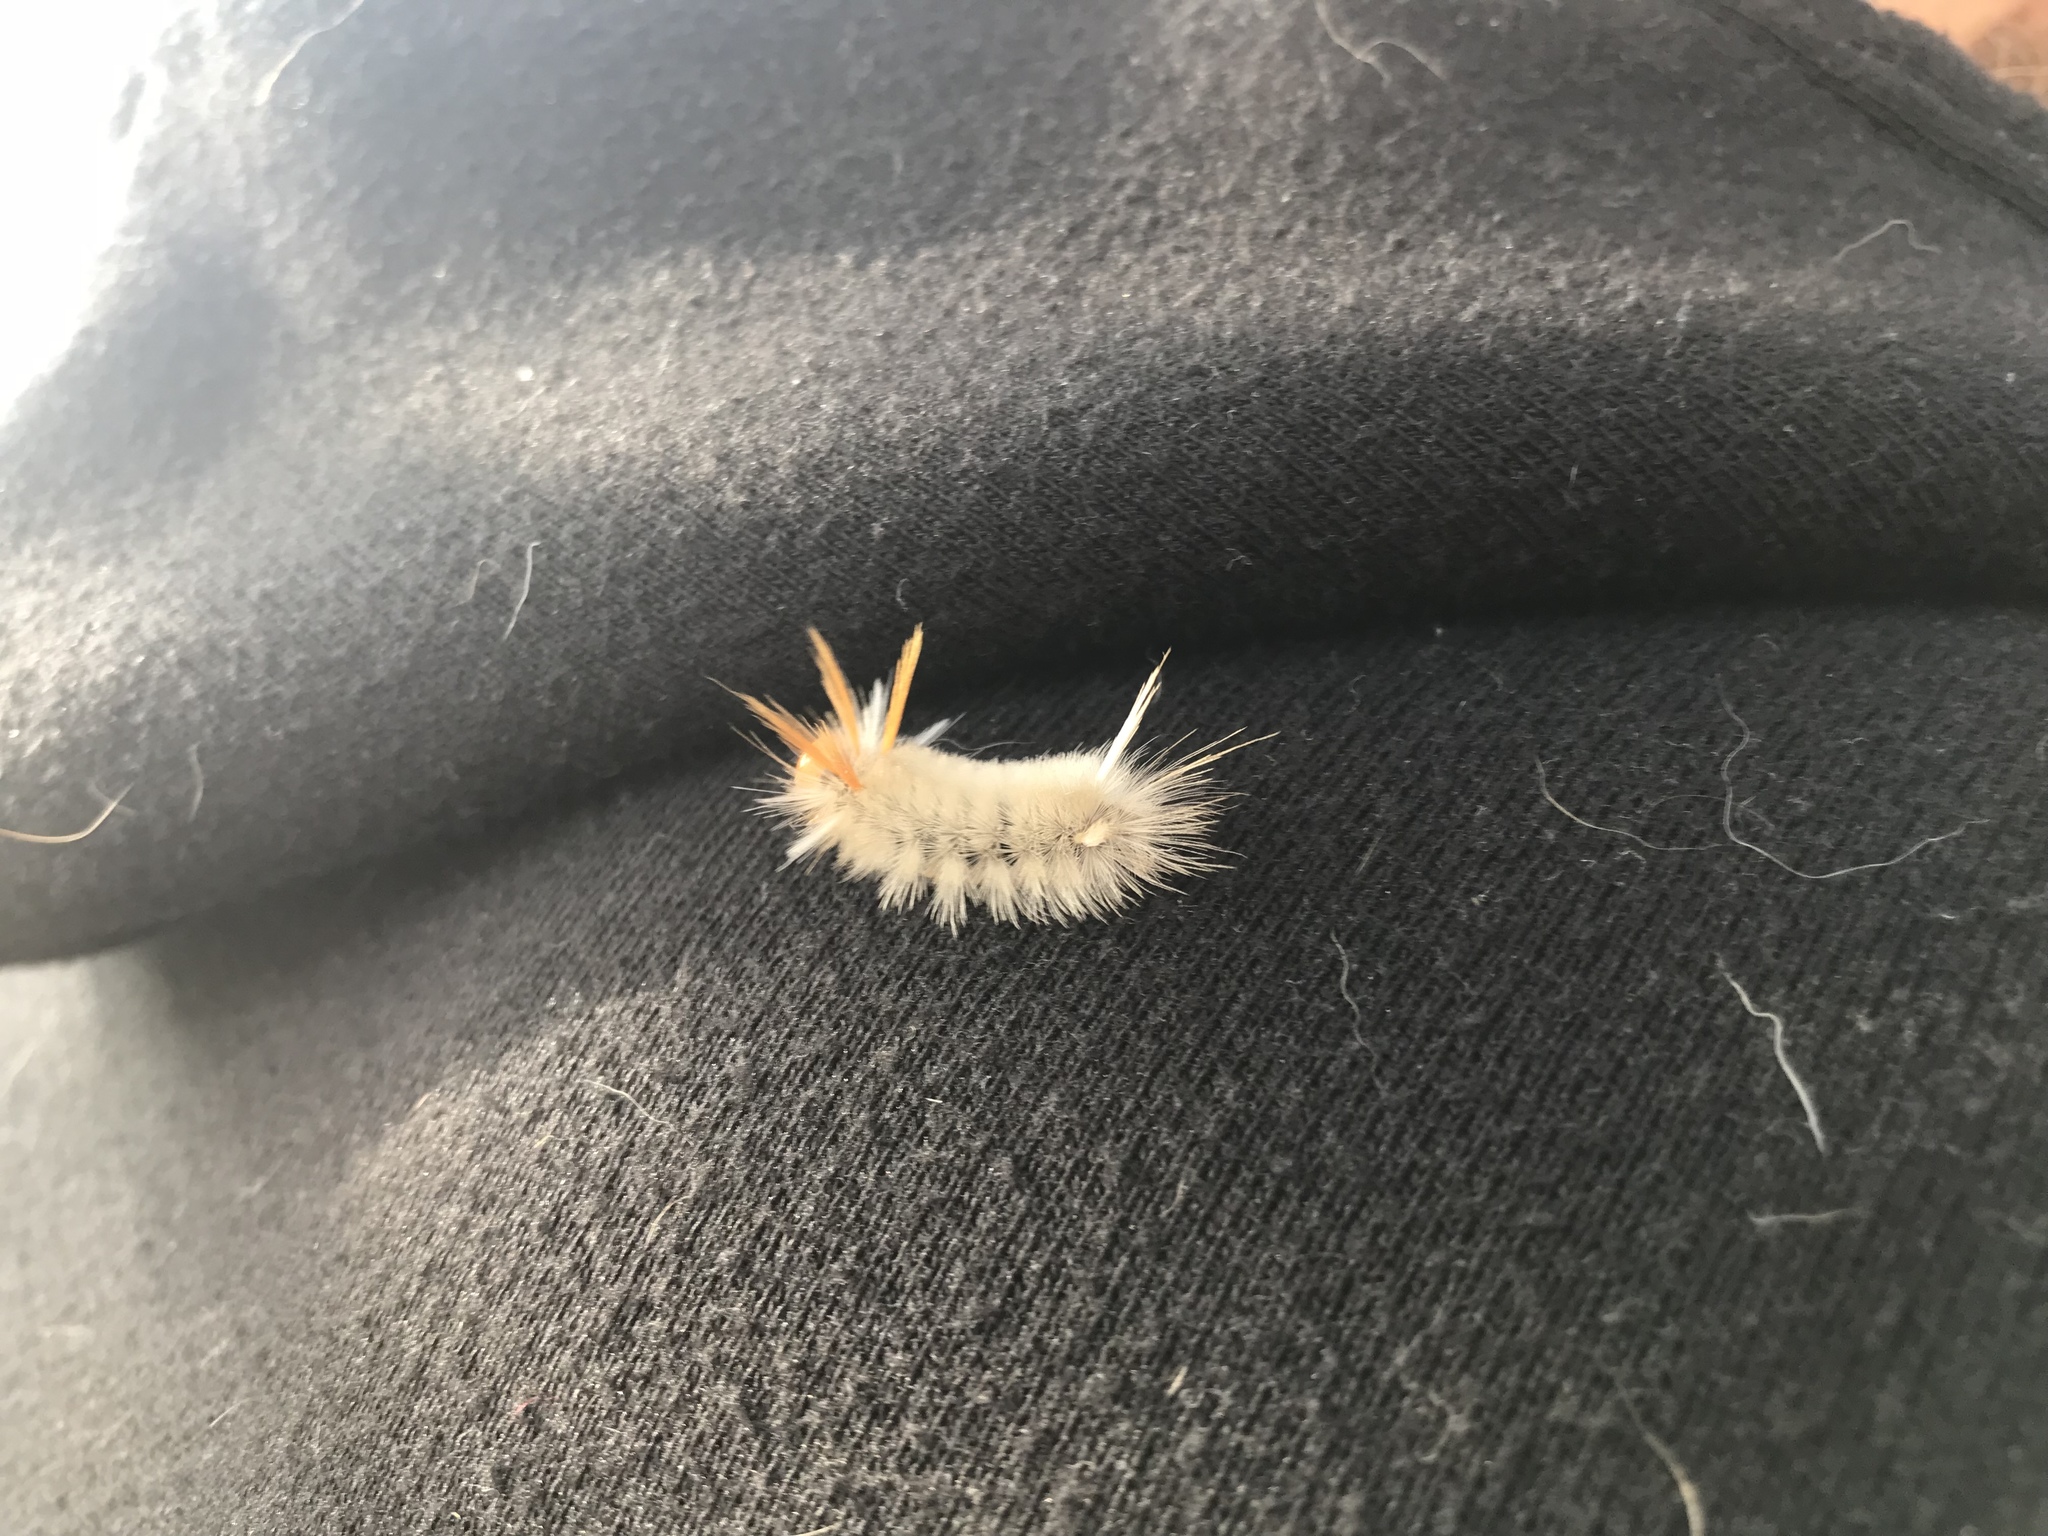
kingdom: Animalia
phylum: Arthropoda
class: Insecta
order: Lepidoptera
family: Erebidae
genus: Halysidota
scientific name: Halysidota harrisii
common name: Sycamore tussock moth
